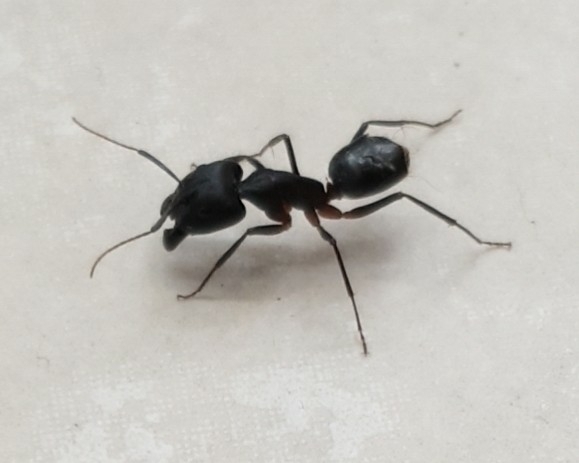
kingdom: Animalia
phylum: Arthropoda
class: Insecta
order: Hymenoptera
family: Formicidae
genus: Camponotus
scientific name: Camponotus xerxes
